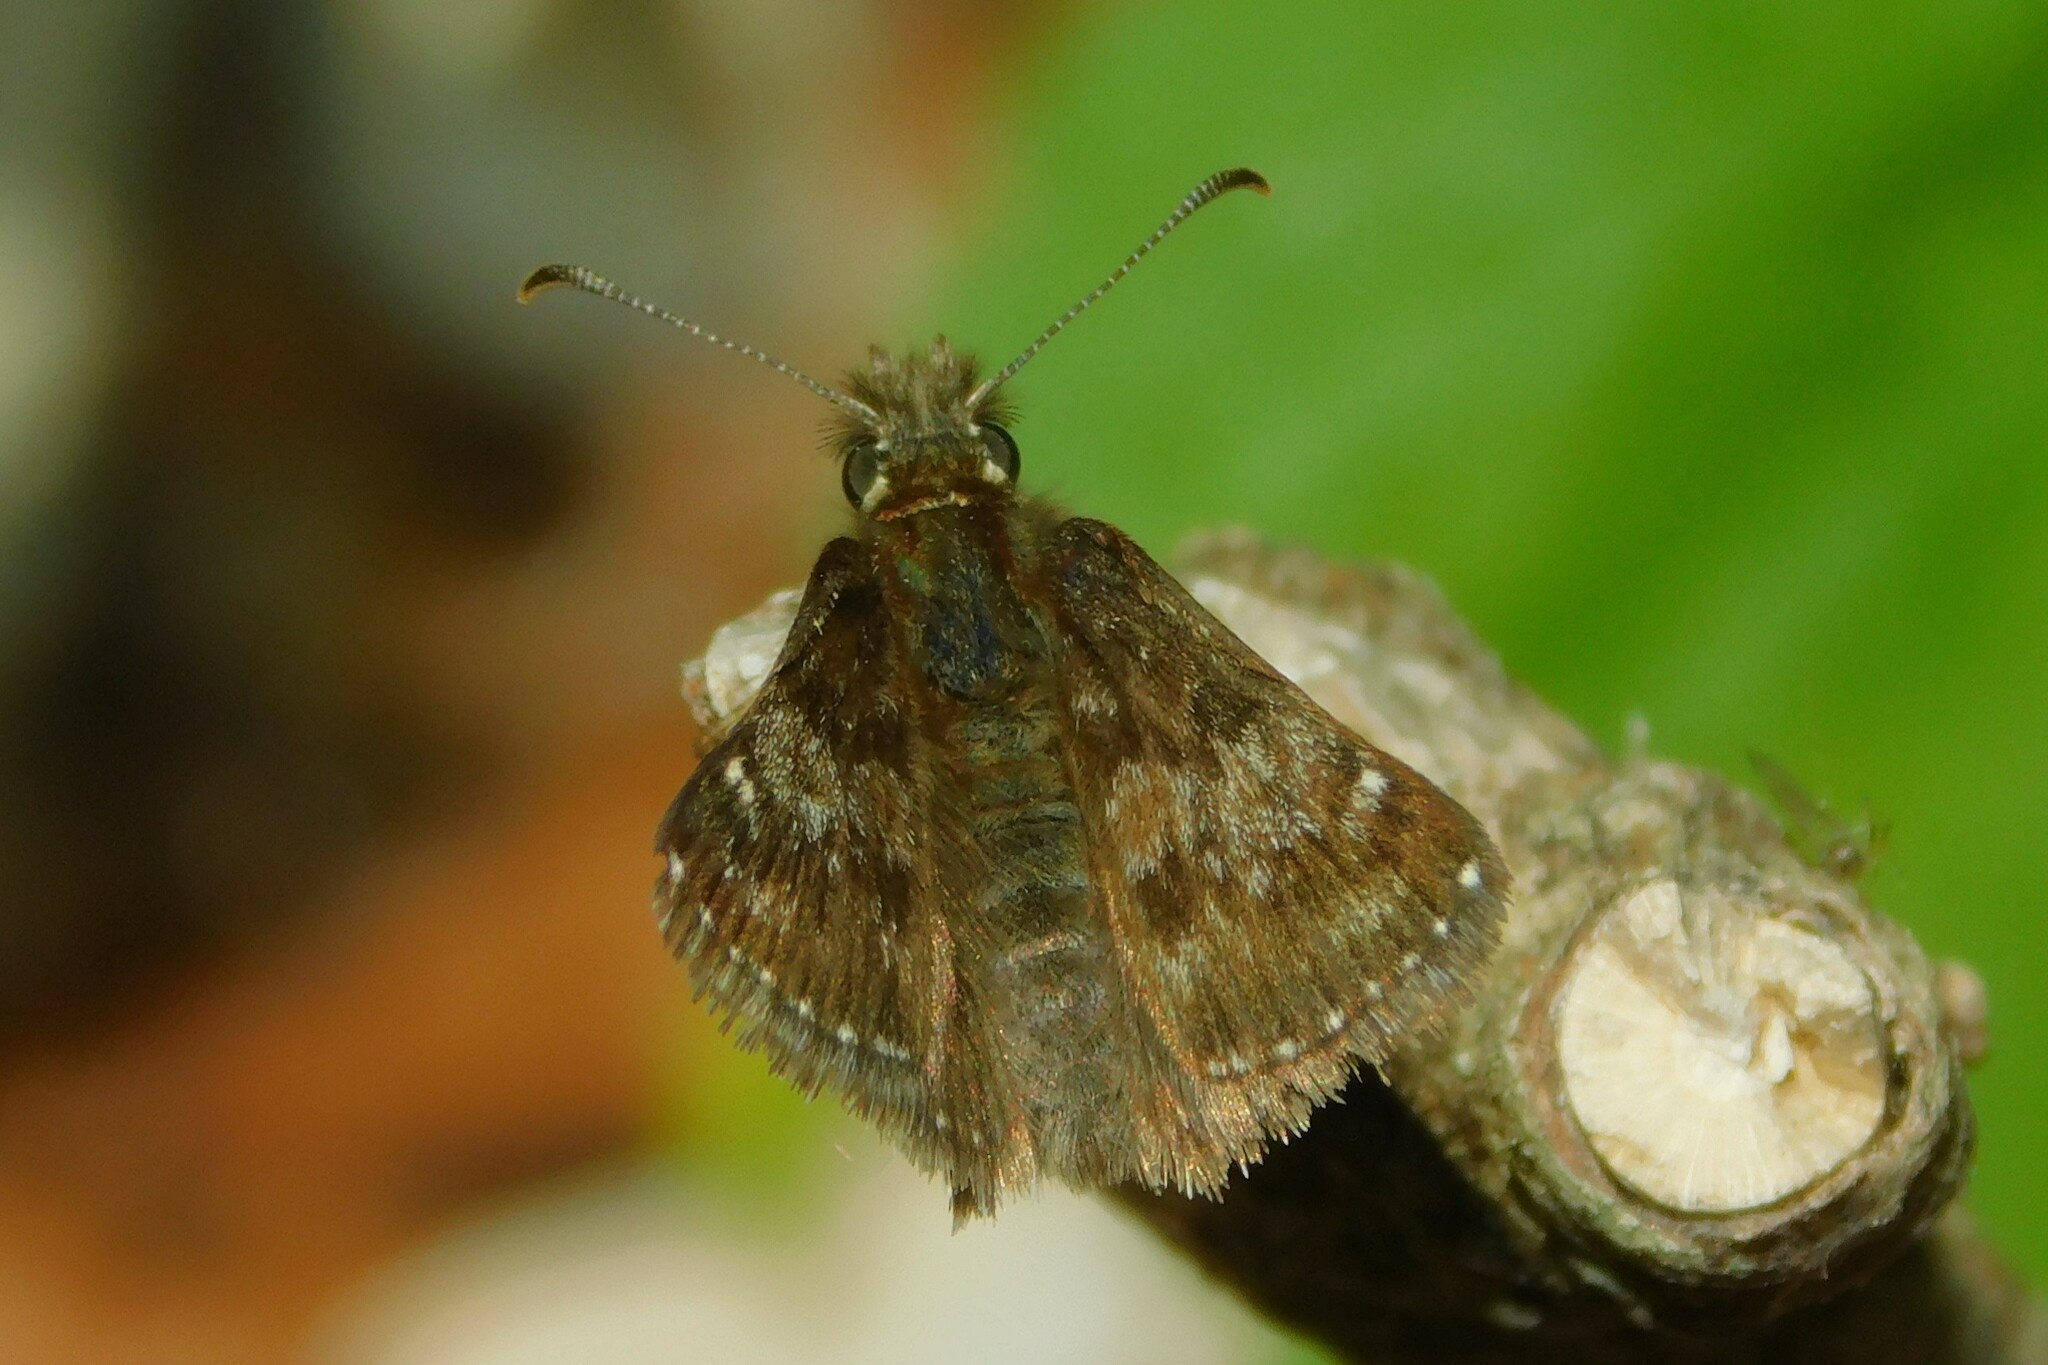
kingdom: Animalia
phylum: Arthropoda
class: Insecta
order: Lepidoptera
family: Hesperiidae
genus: Erynnis
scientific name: Erynnis tages
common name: Dingy skipper
